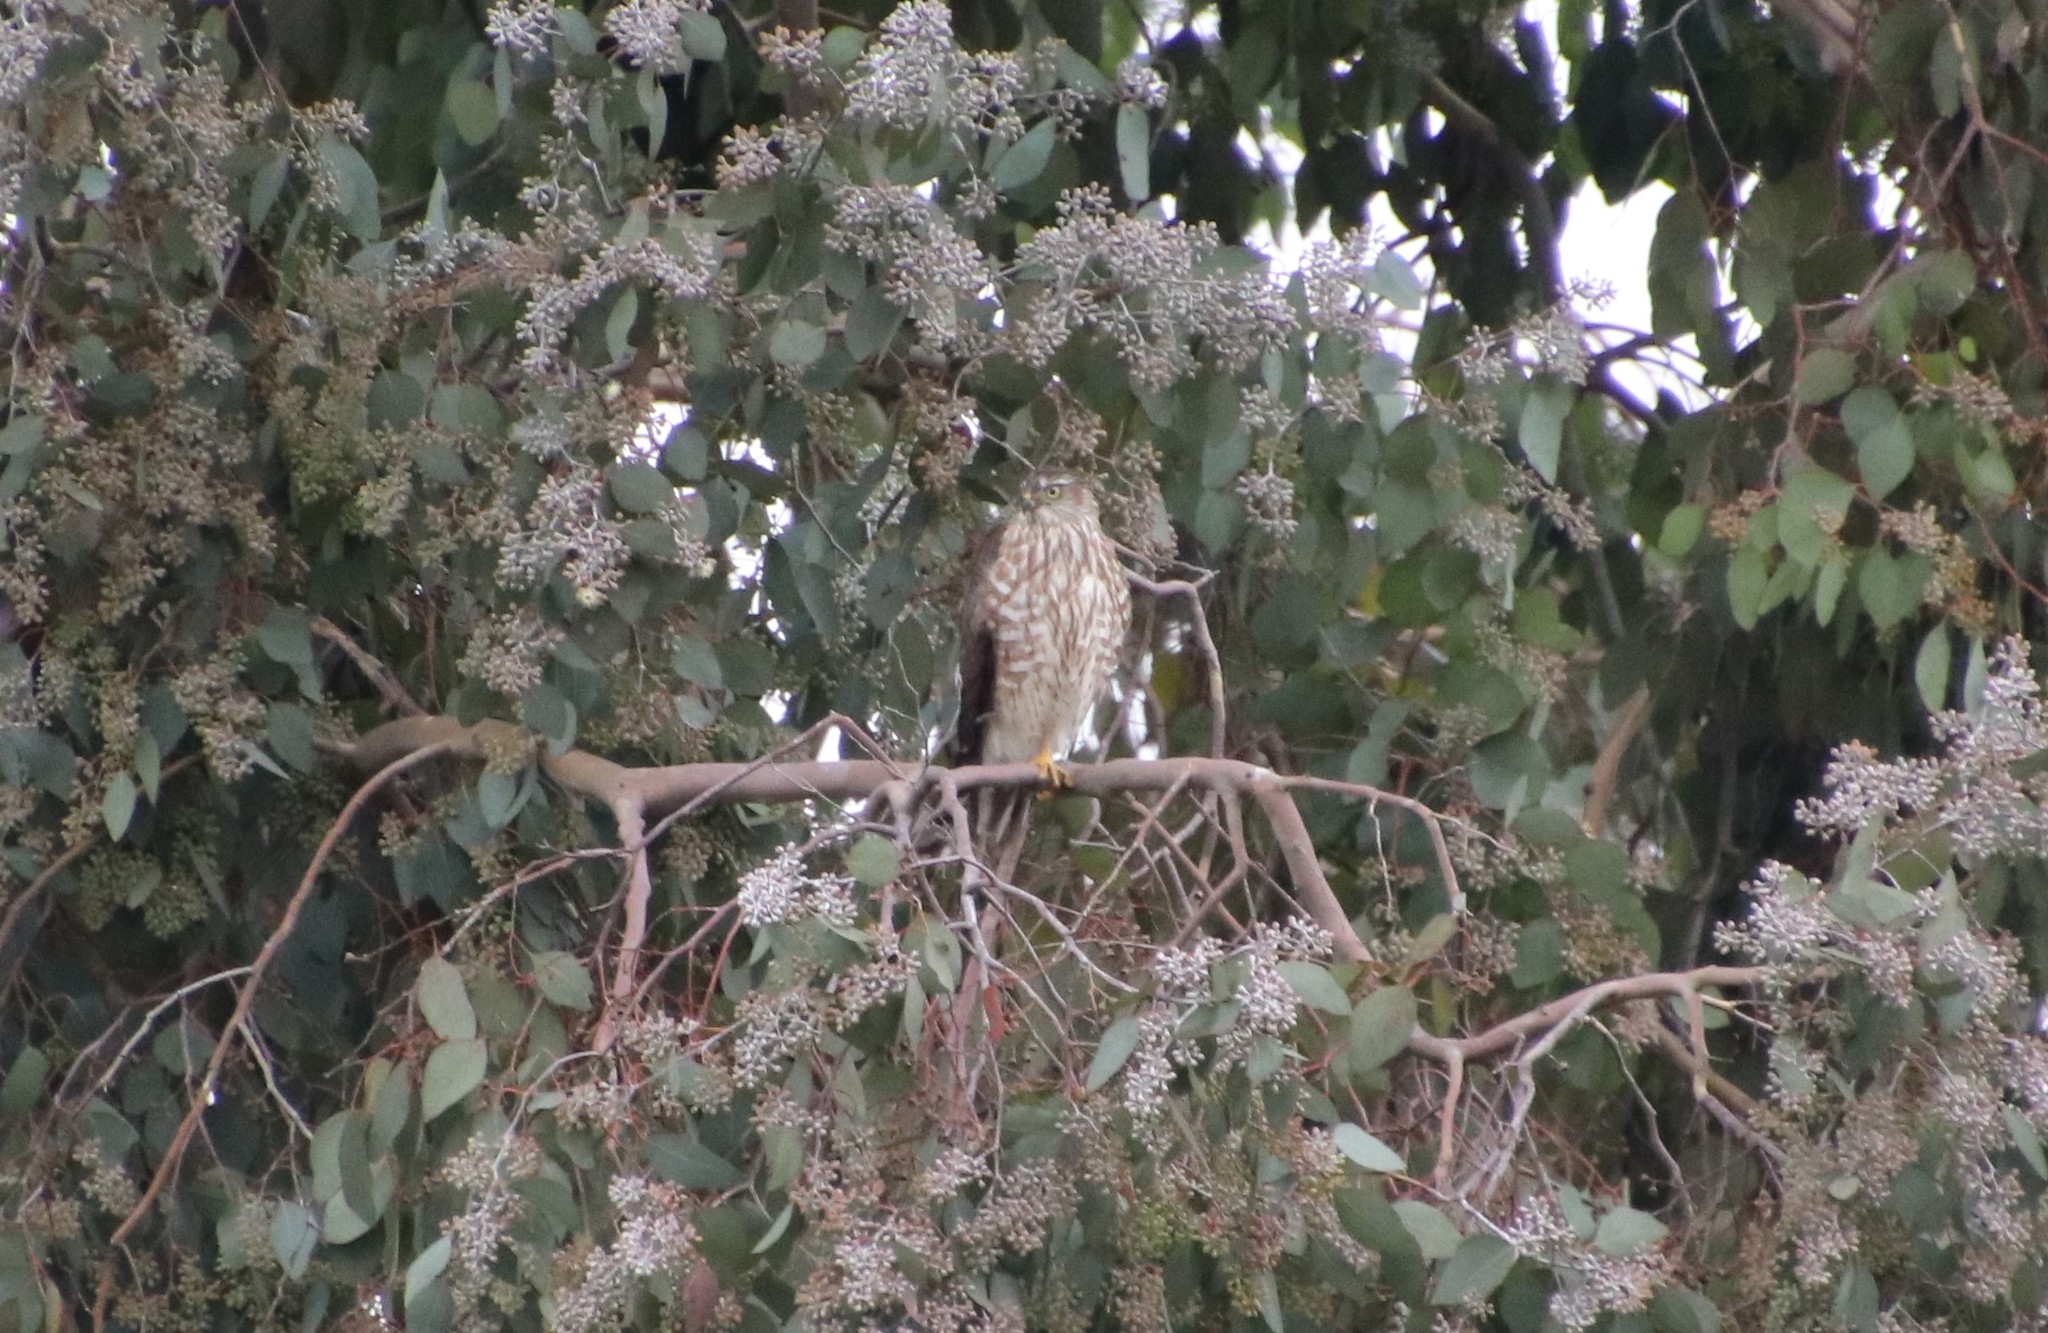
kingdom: Animalia
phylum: Chordata
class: Aves
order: Accipitriformes
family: Accipitridae
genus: Accipiter
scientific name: Accipiter striatus
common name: Sharp-shinned hawk
